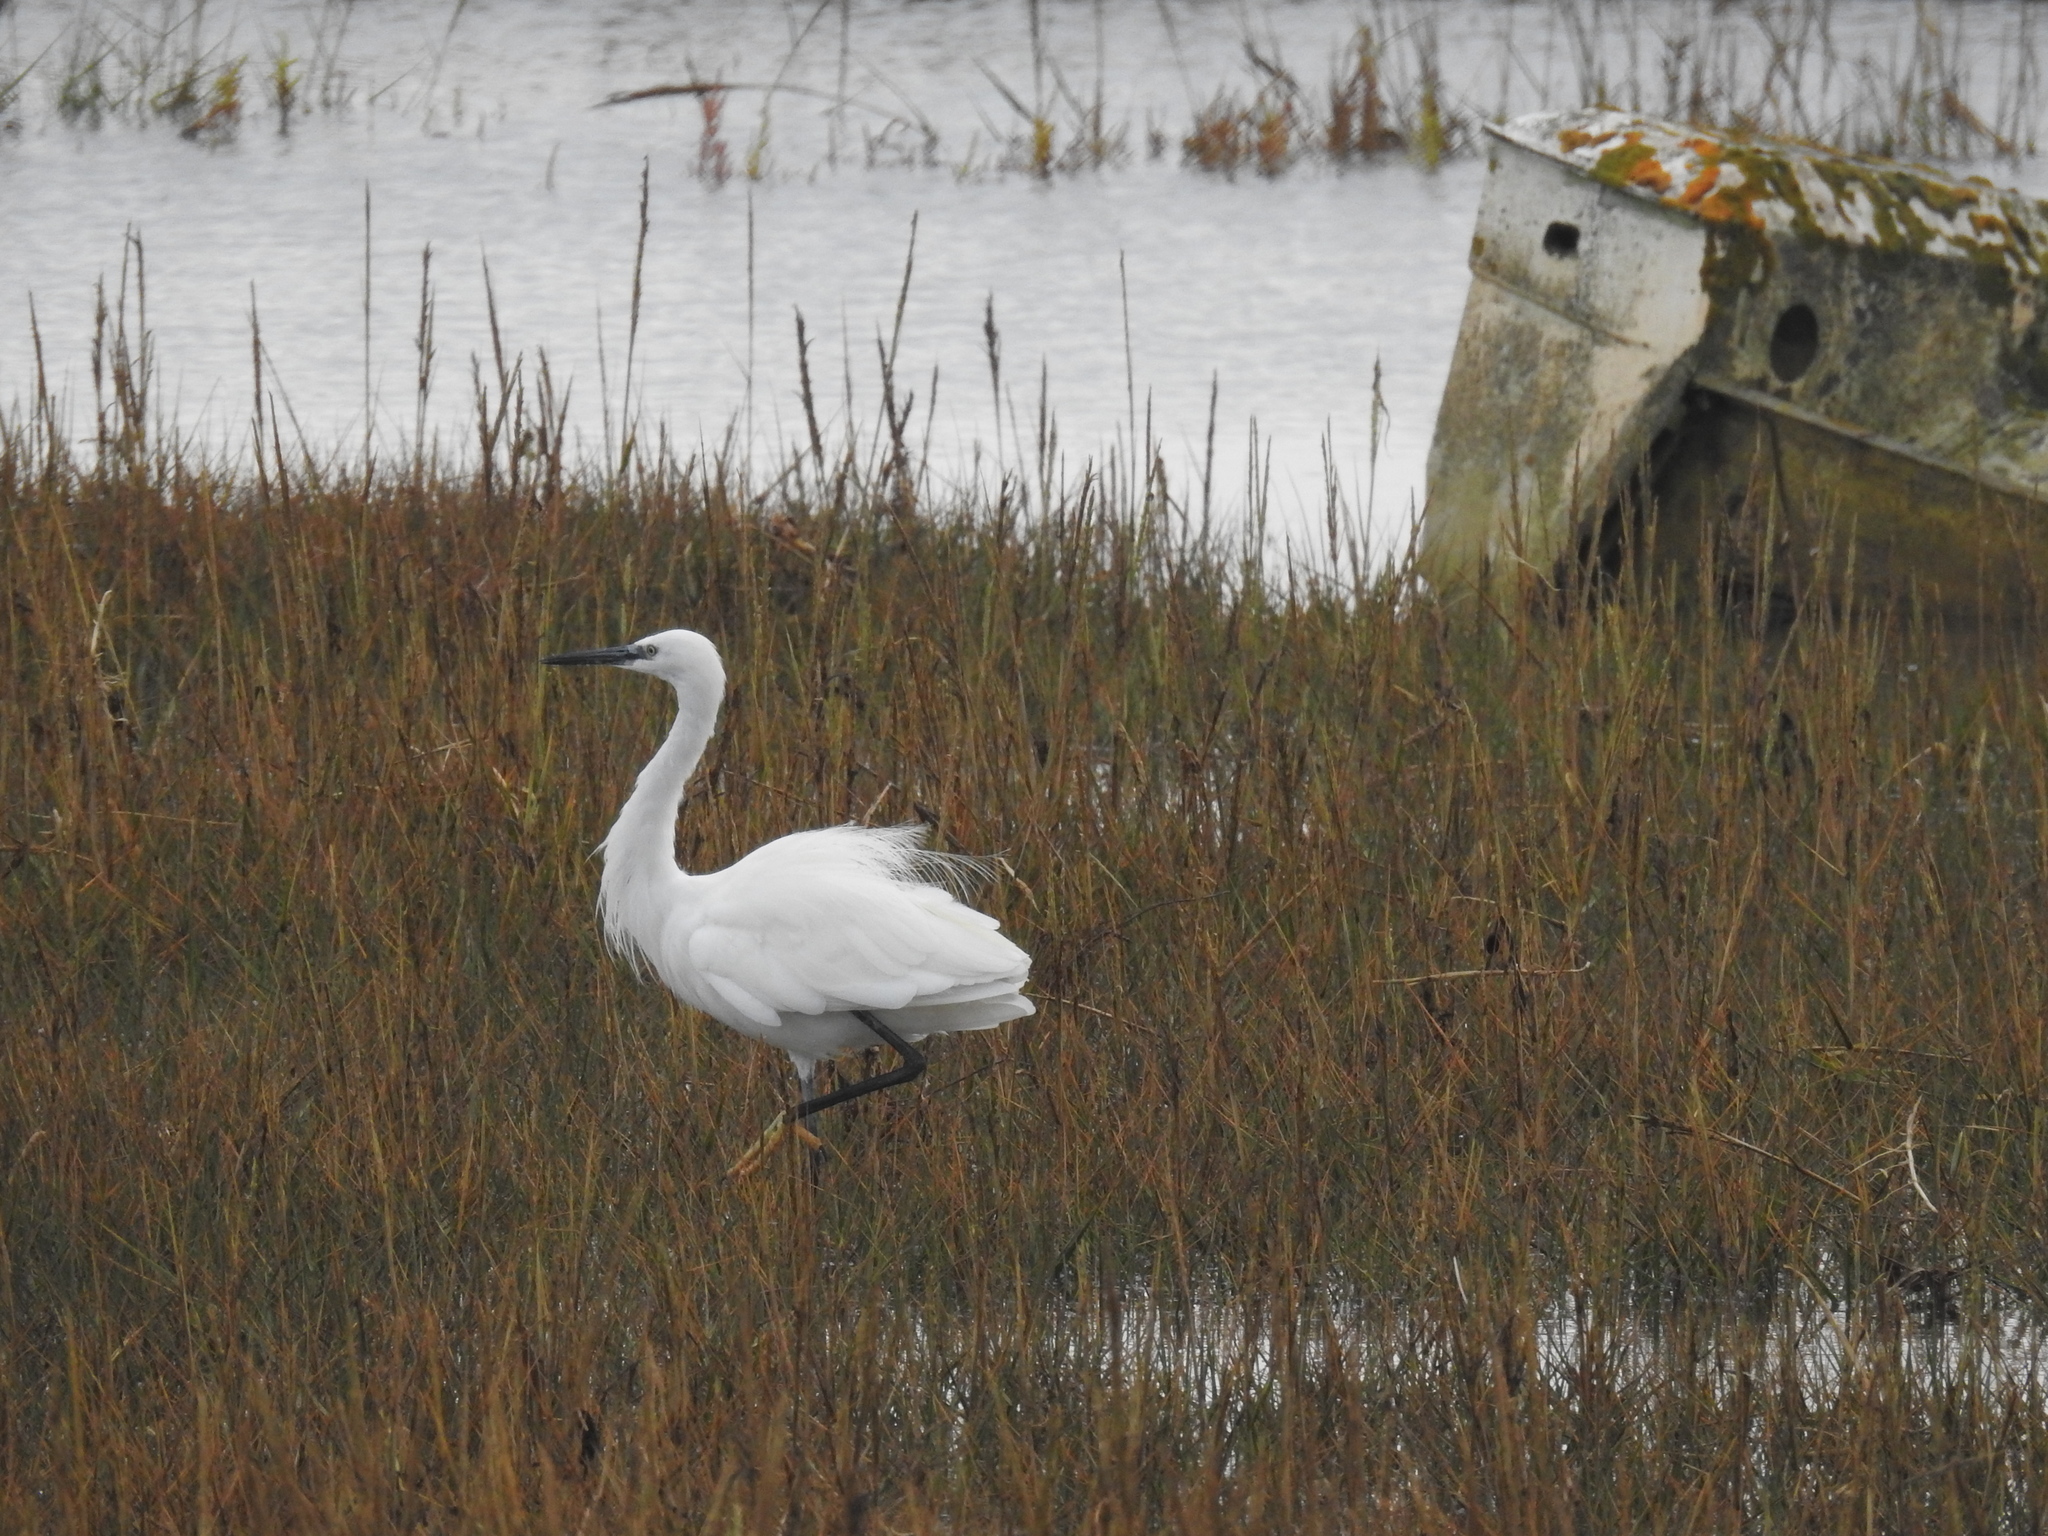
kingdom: Animalia
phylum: Chordata
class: Aves
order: Pelecaniformes
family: Ardeidae
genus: Egretta
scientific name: Egretta garzetta
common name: Little egret
